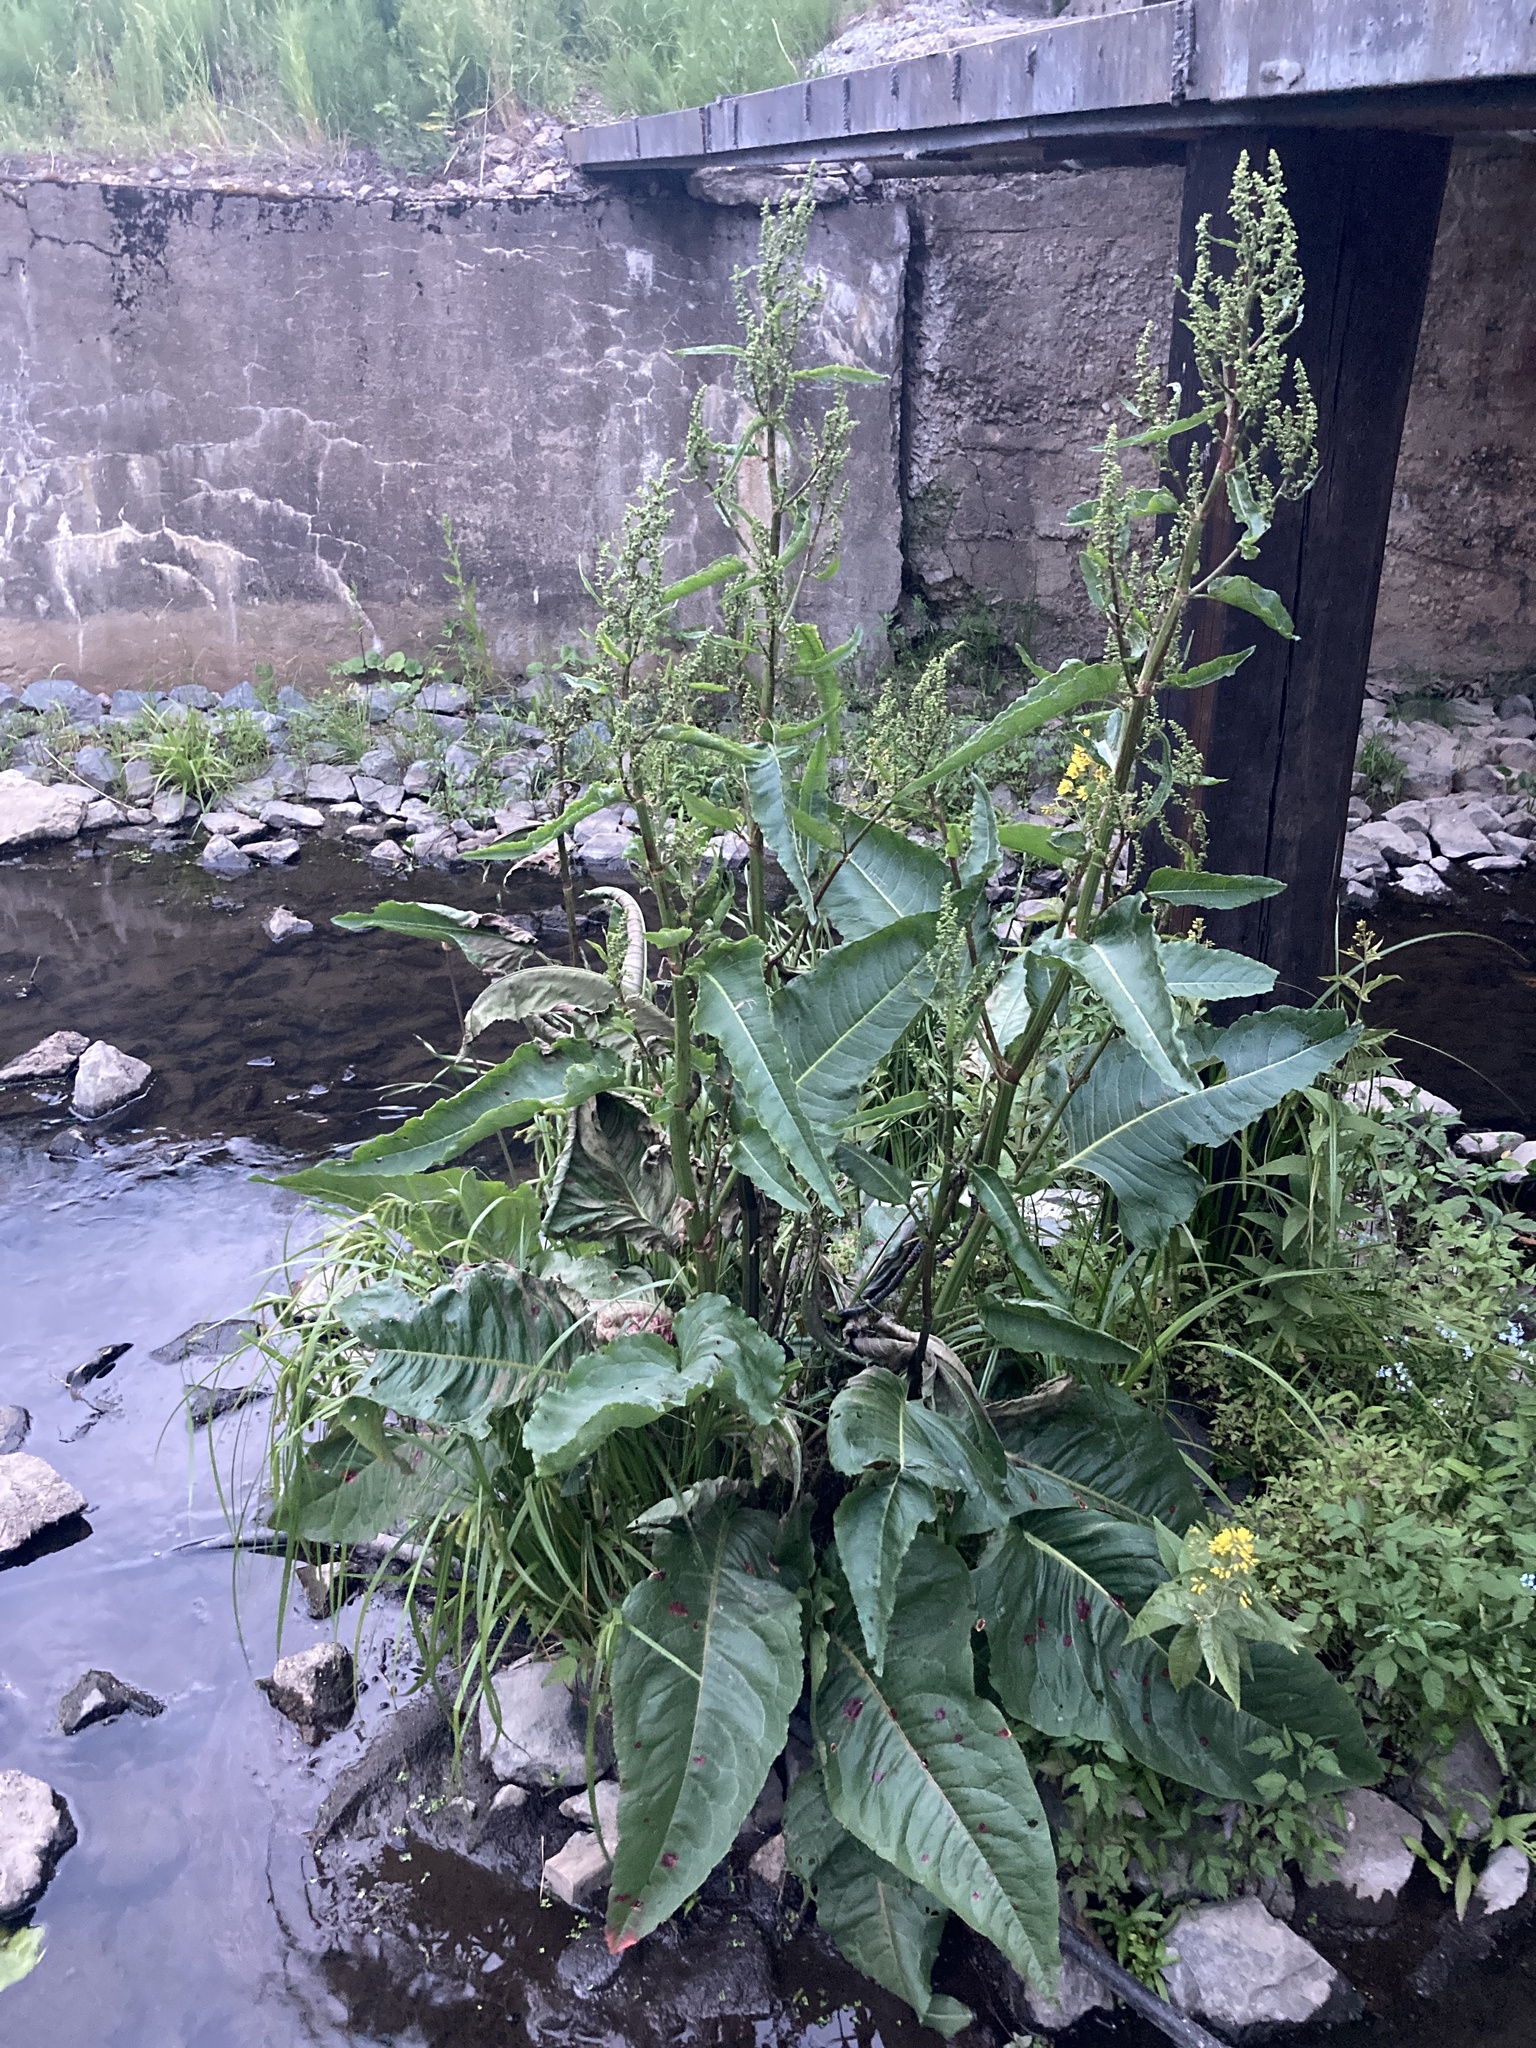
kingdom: Plantae
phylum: Tracheophyta
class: Magnoliopsida
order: Caryophyllales
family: Polygonaceae
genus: Rumex
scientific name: Rumex aquaticus
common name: Scottish dock
